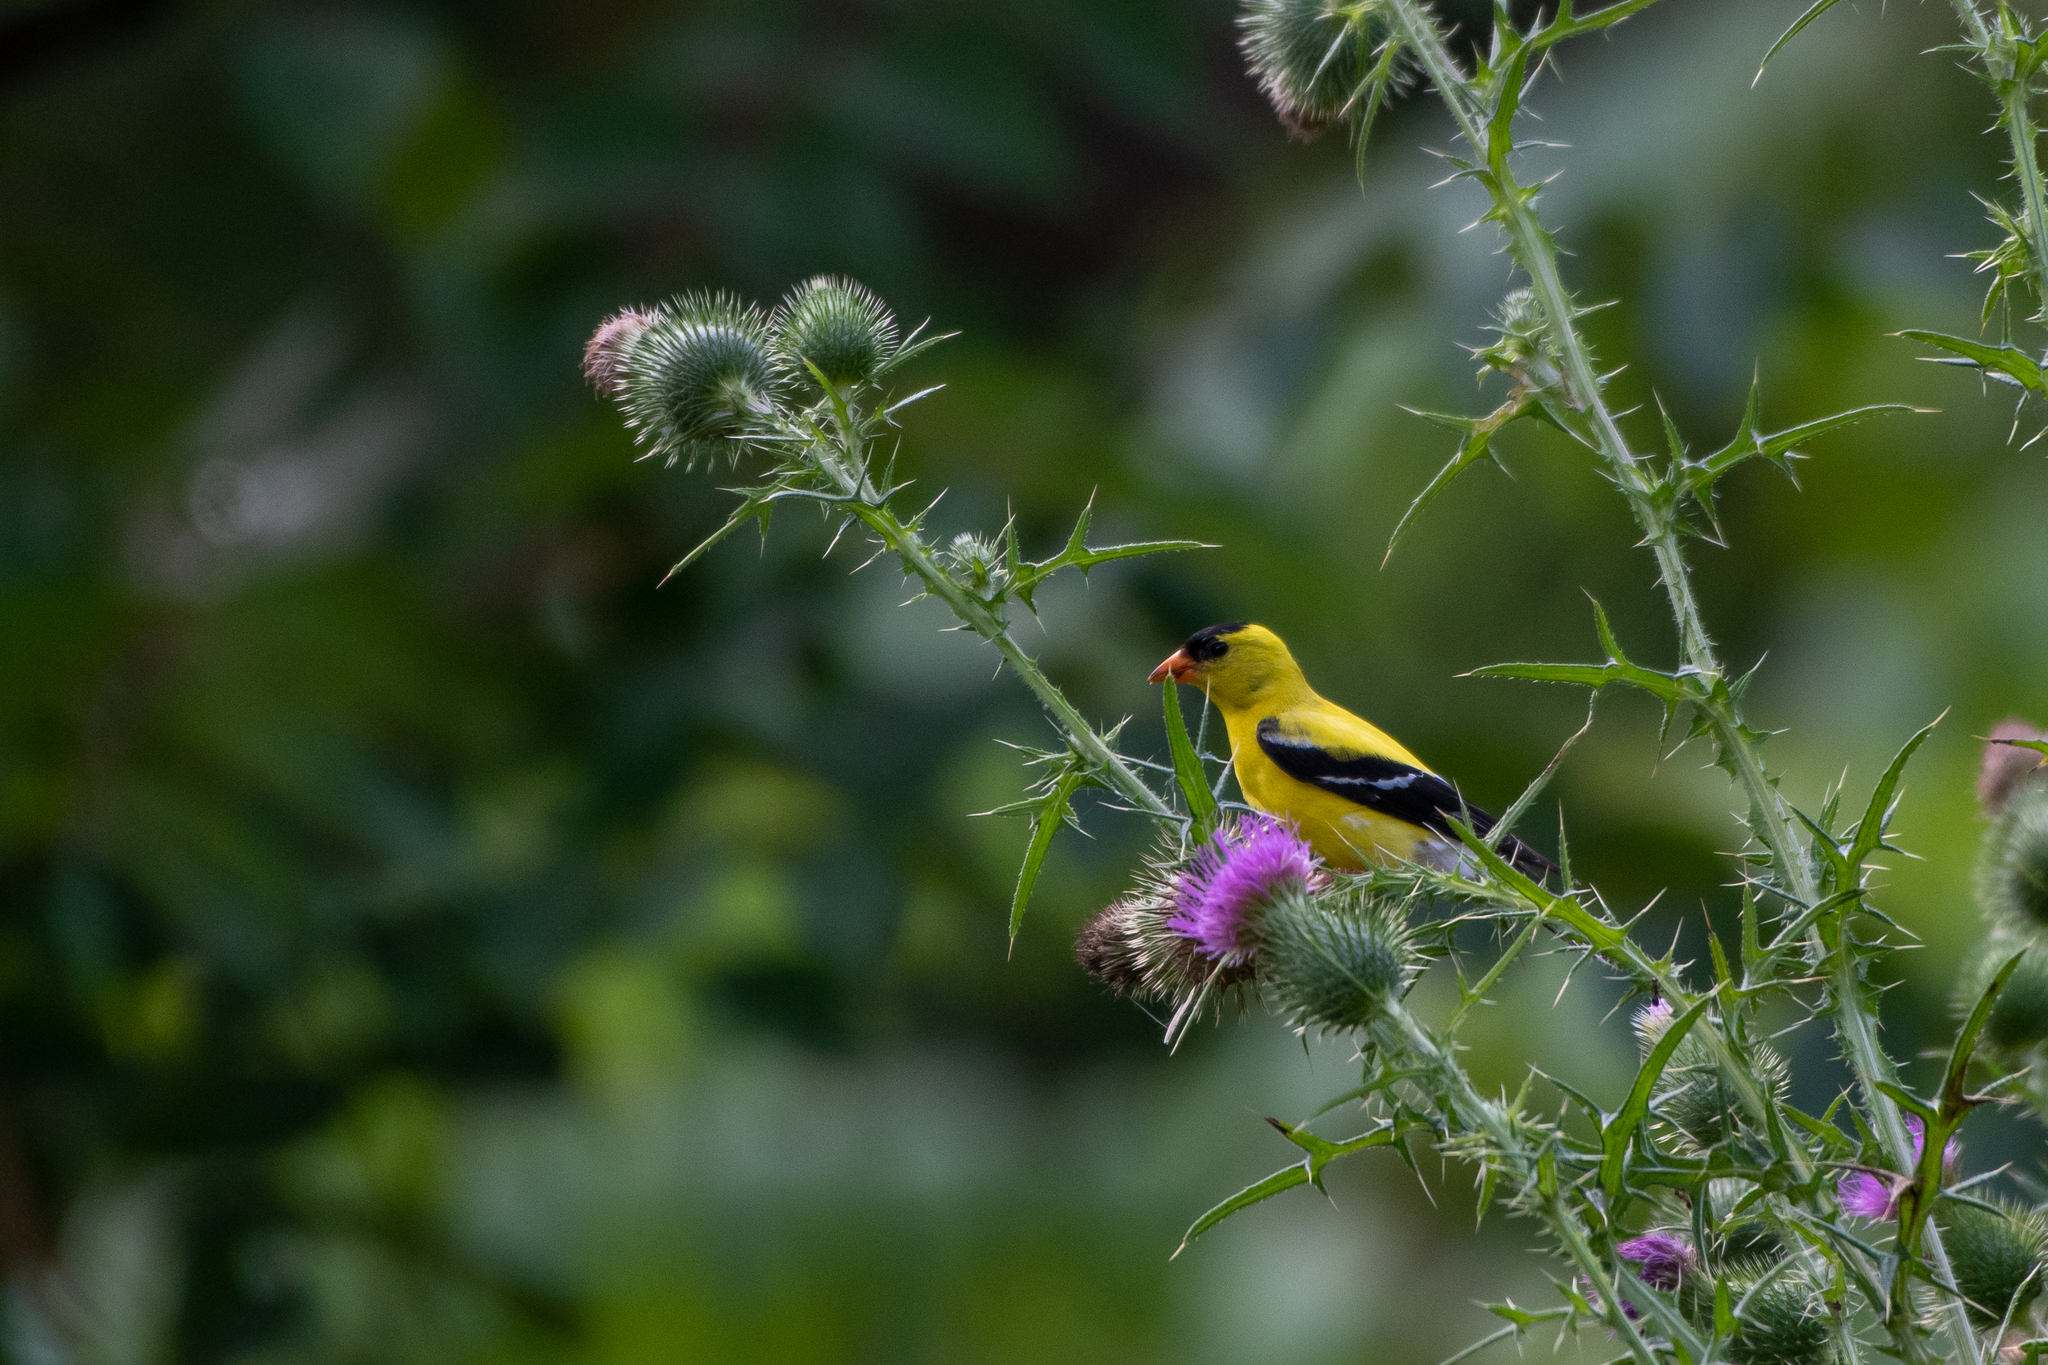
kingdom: Animalia
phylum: Chordata
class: Aves
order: Passeriformes
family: Fringillidae
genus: Spinus
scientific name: Spinus tristis
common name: American goldfinch
